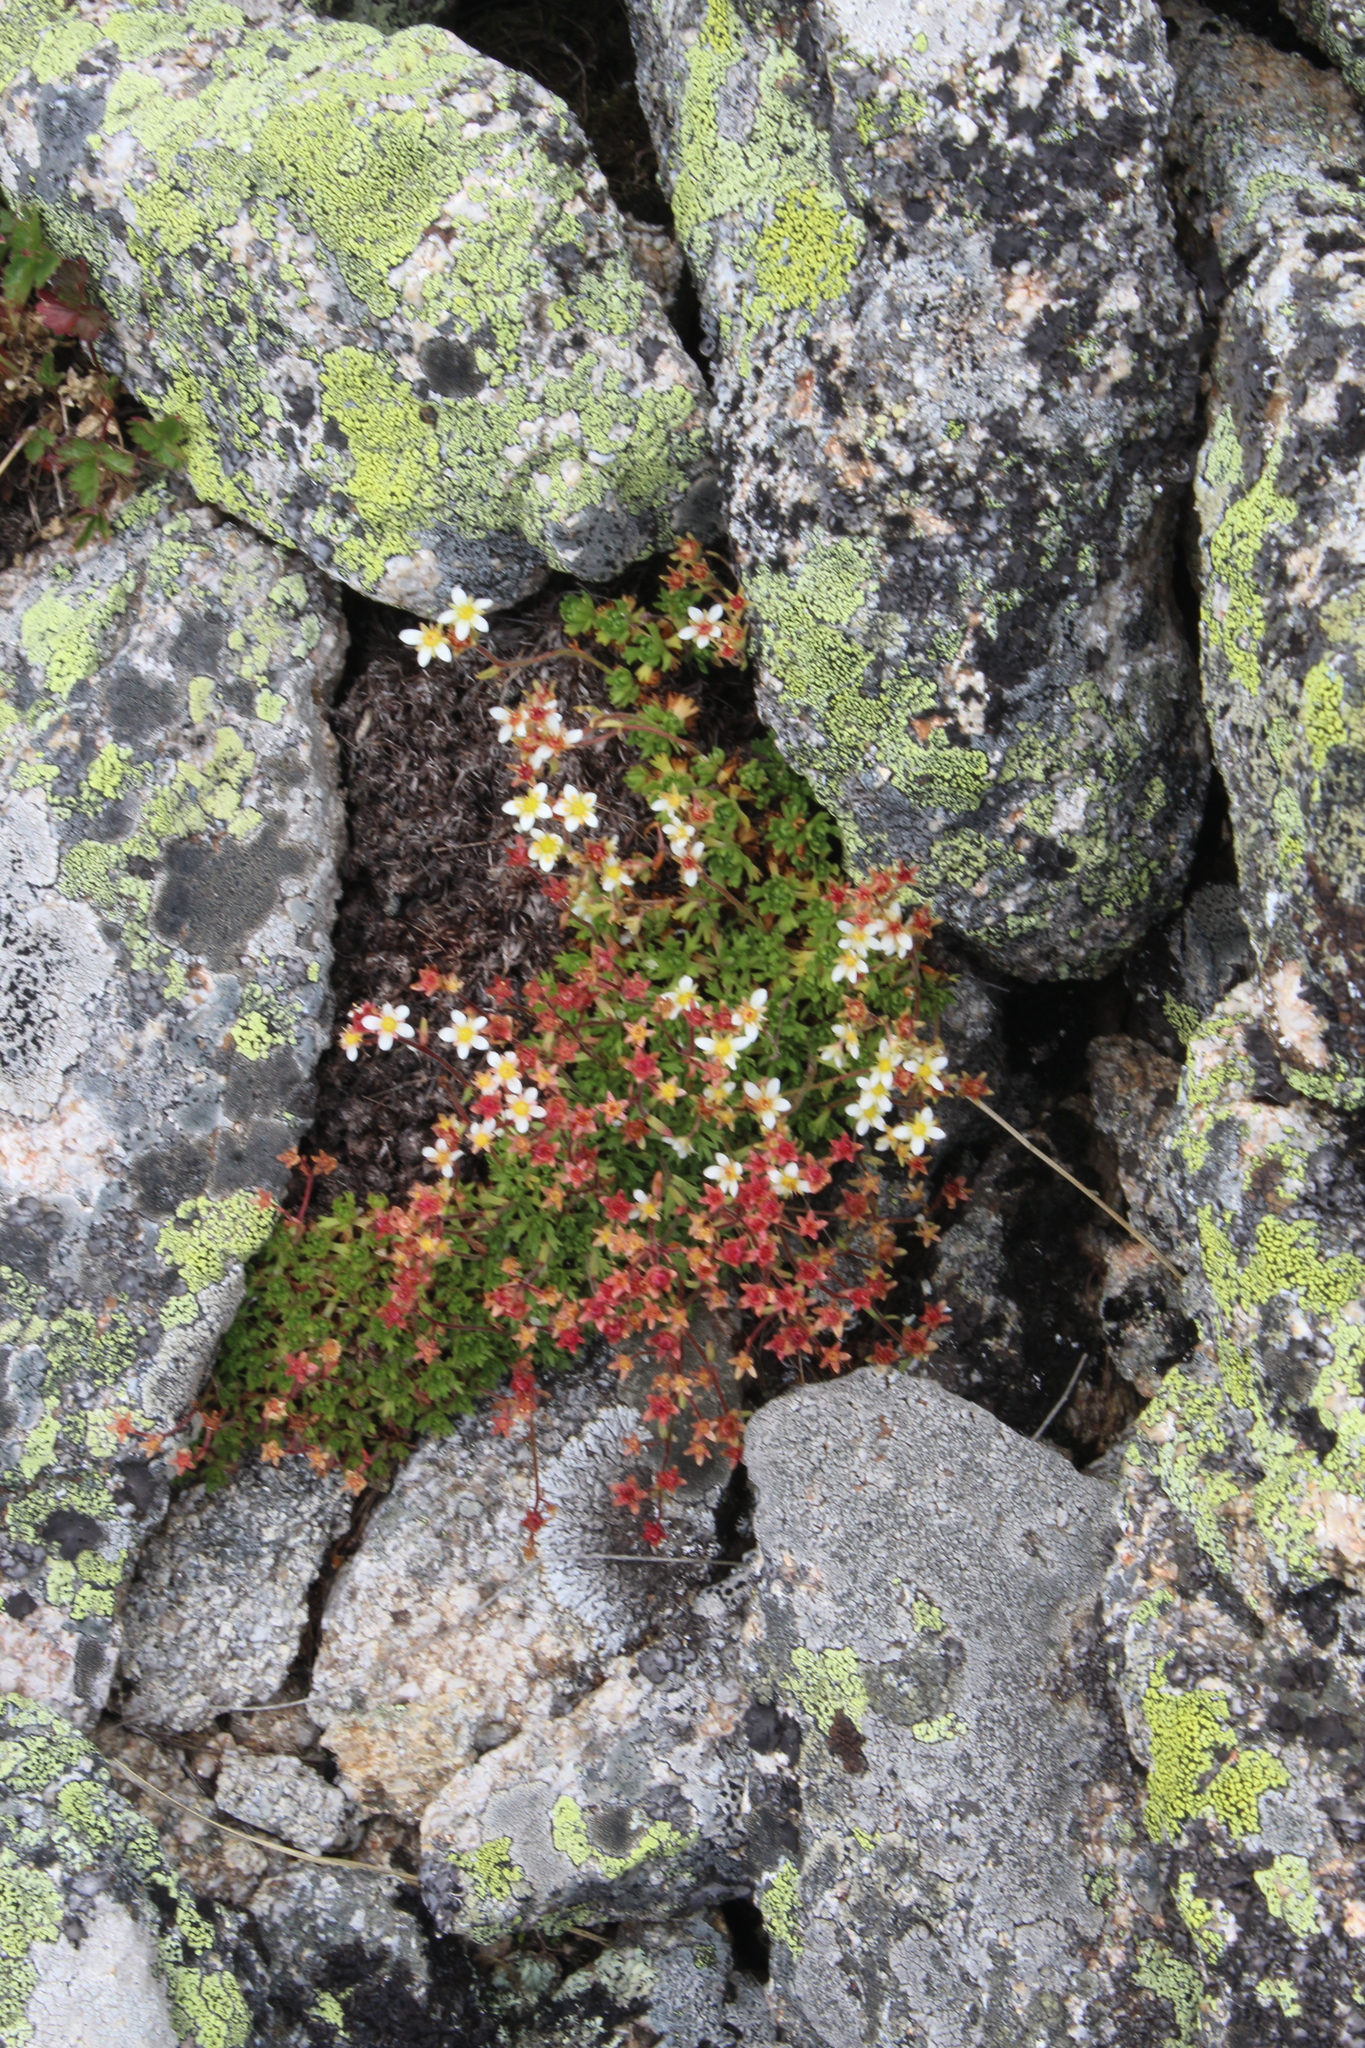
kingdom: Plantae
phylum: Tracheophyta
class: Magnoliopsida
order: Saxifragales
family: Saxifragaceae
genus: Saxifraga
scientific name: Saxifraga exarata
